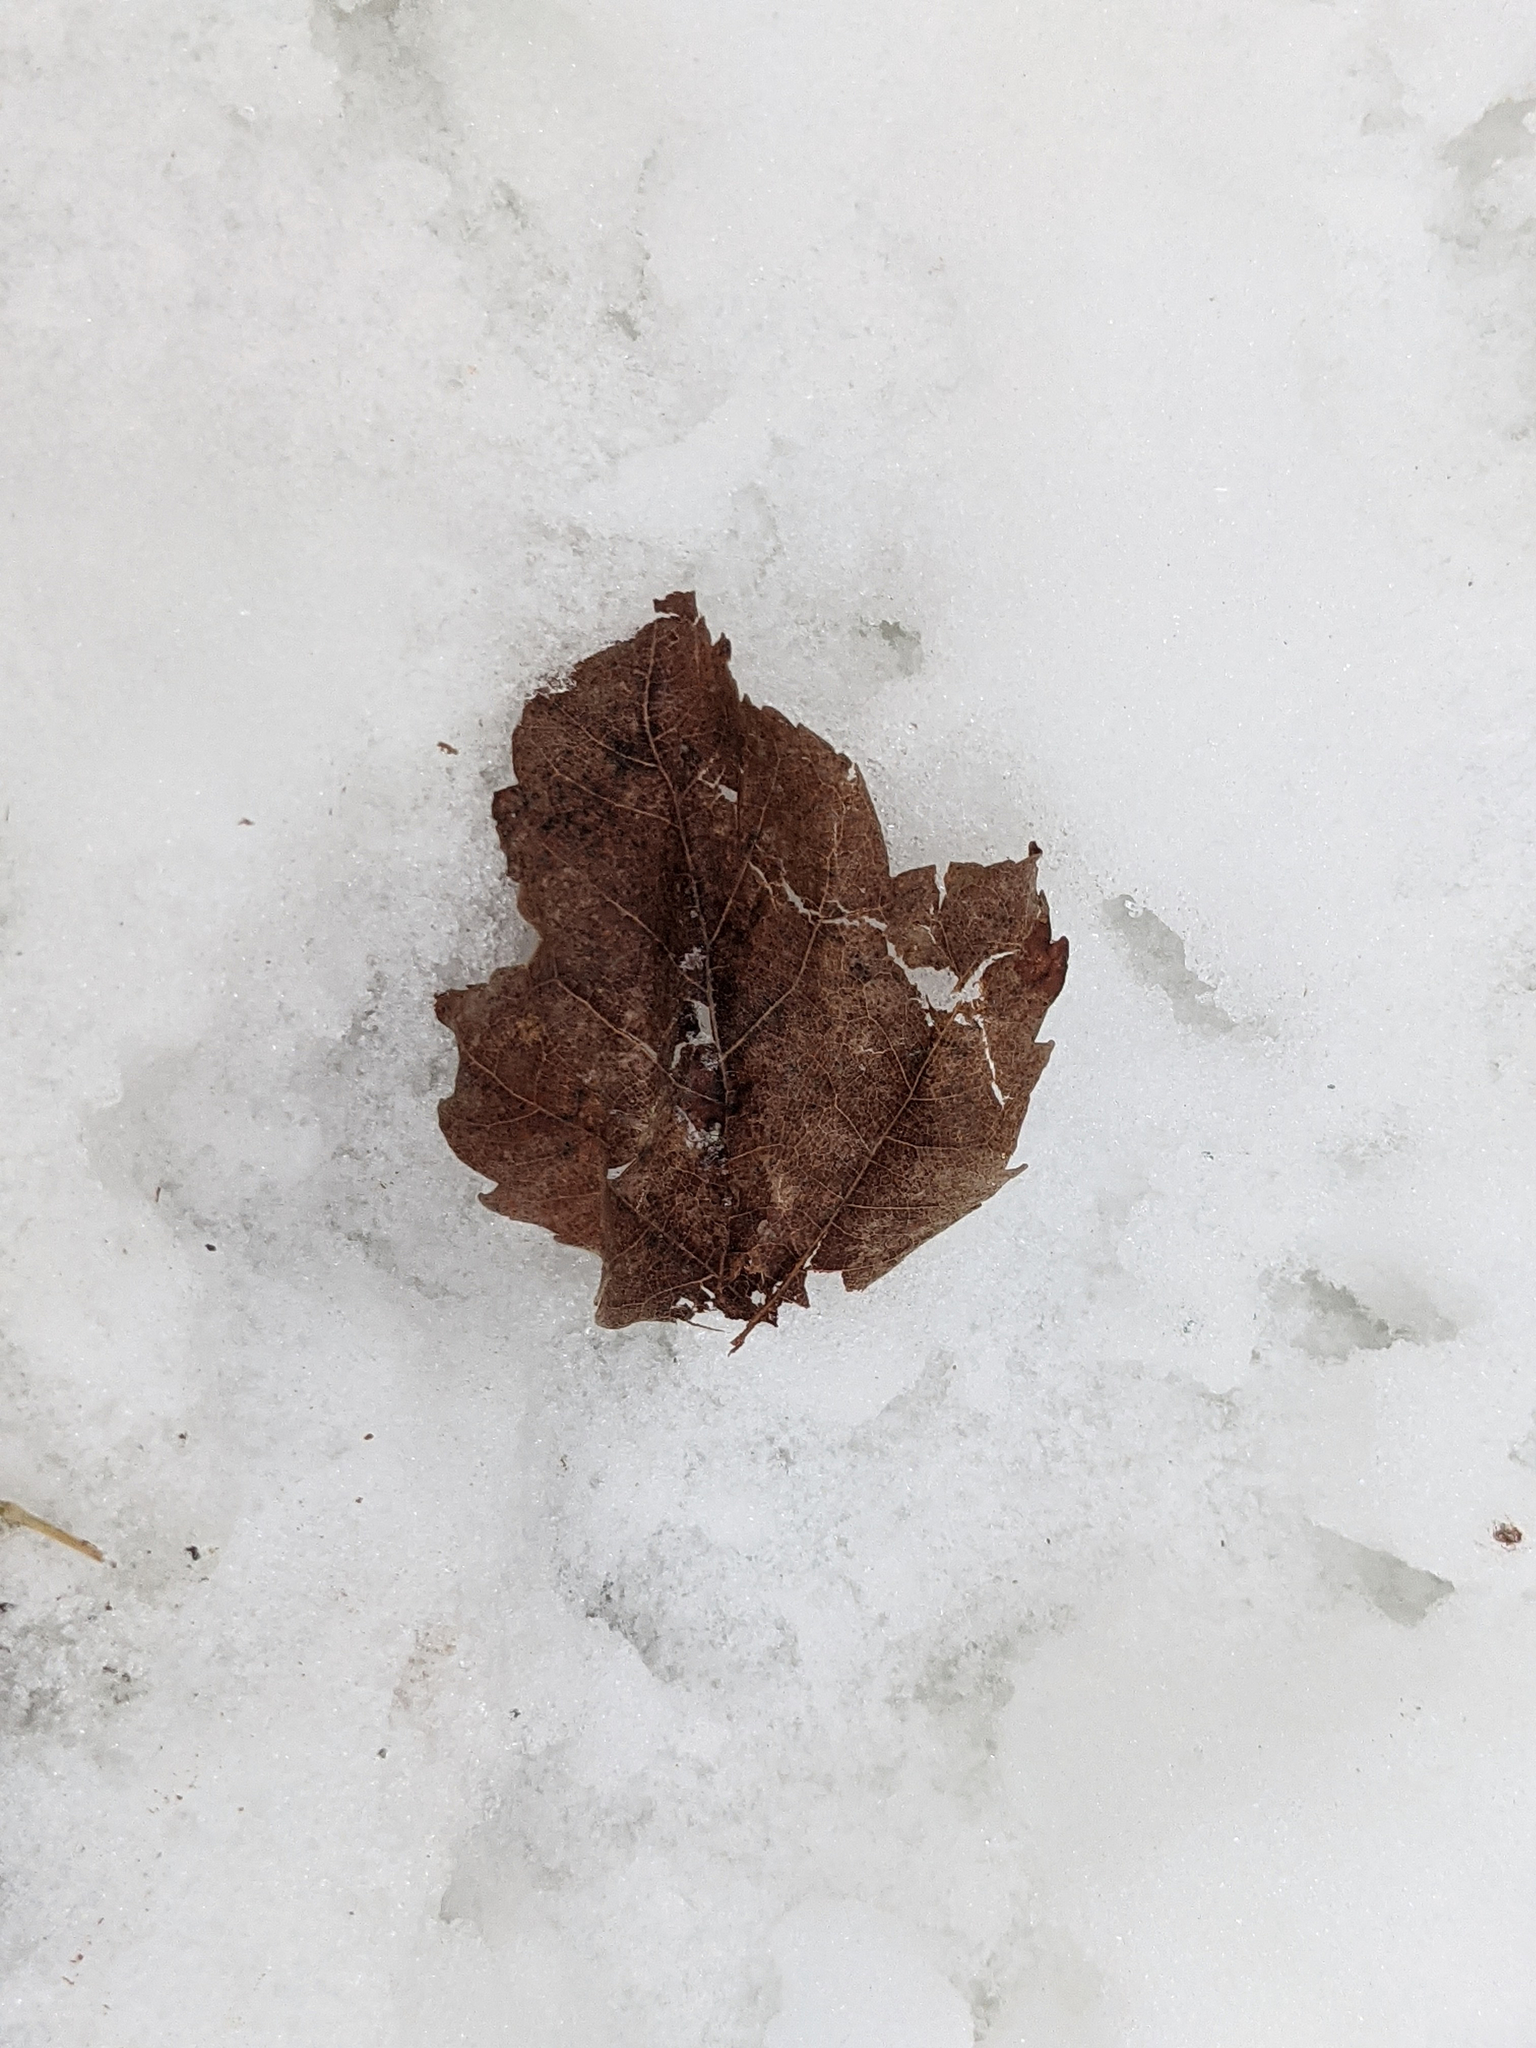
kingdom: Plantae
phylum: Tracheophyta
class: Magnoliopsida
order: Sapindales
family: Sapindaceae
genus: Acer
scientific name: Acer rubrum
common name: Red maple
